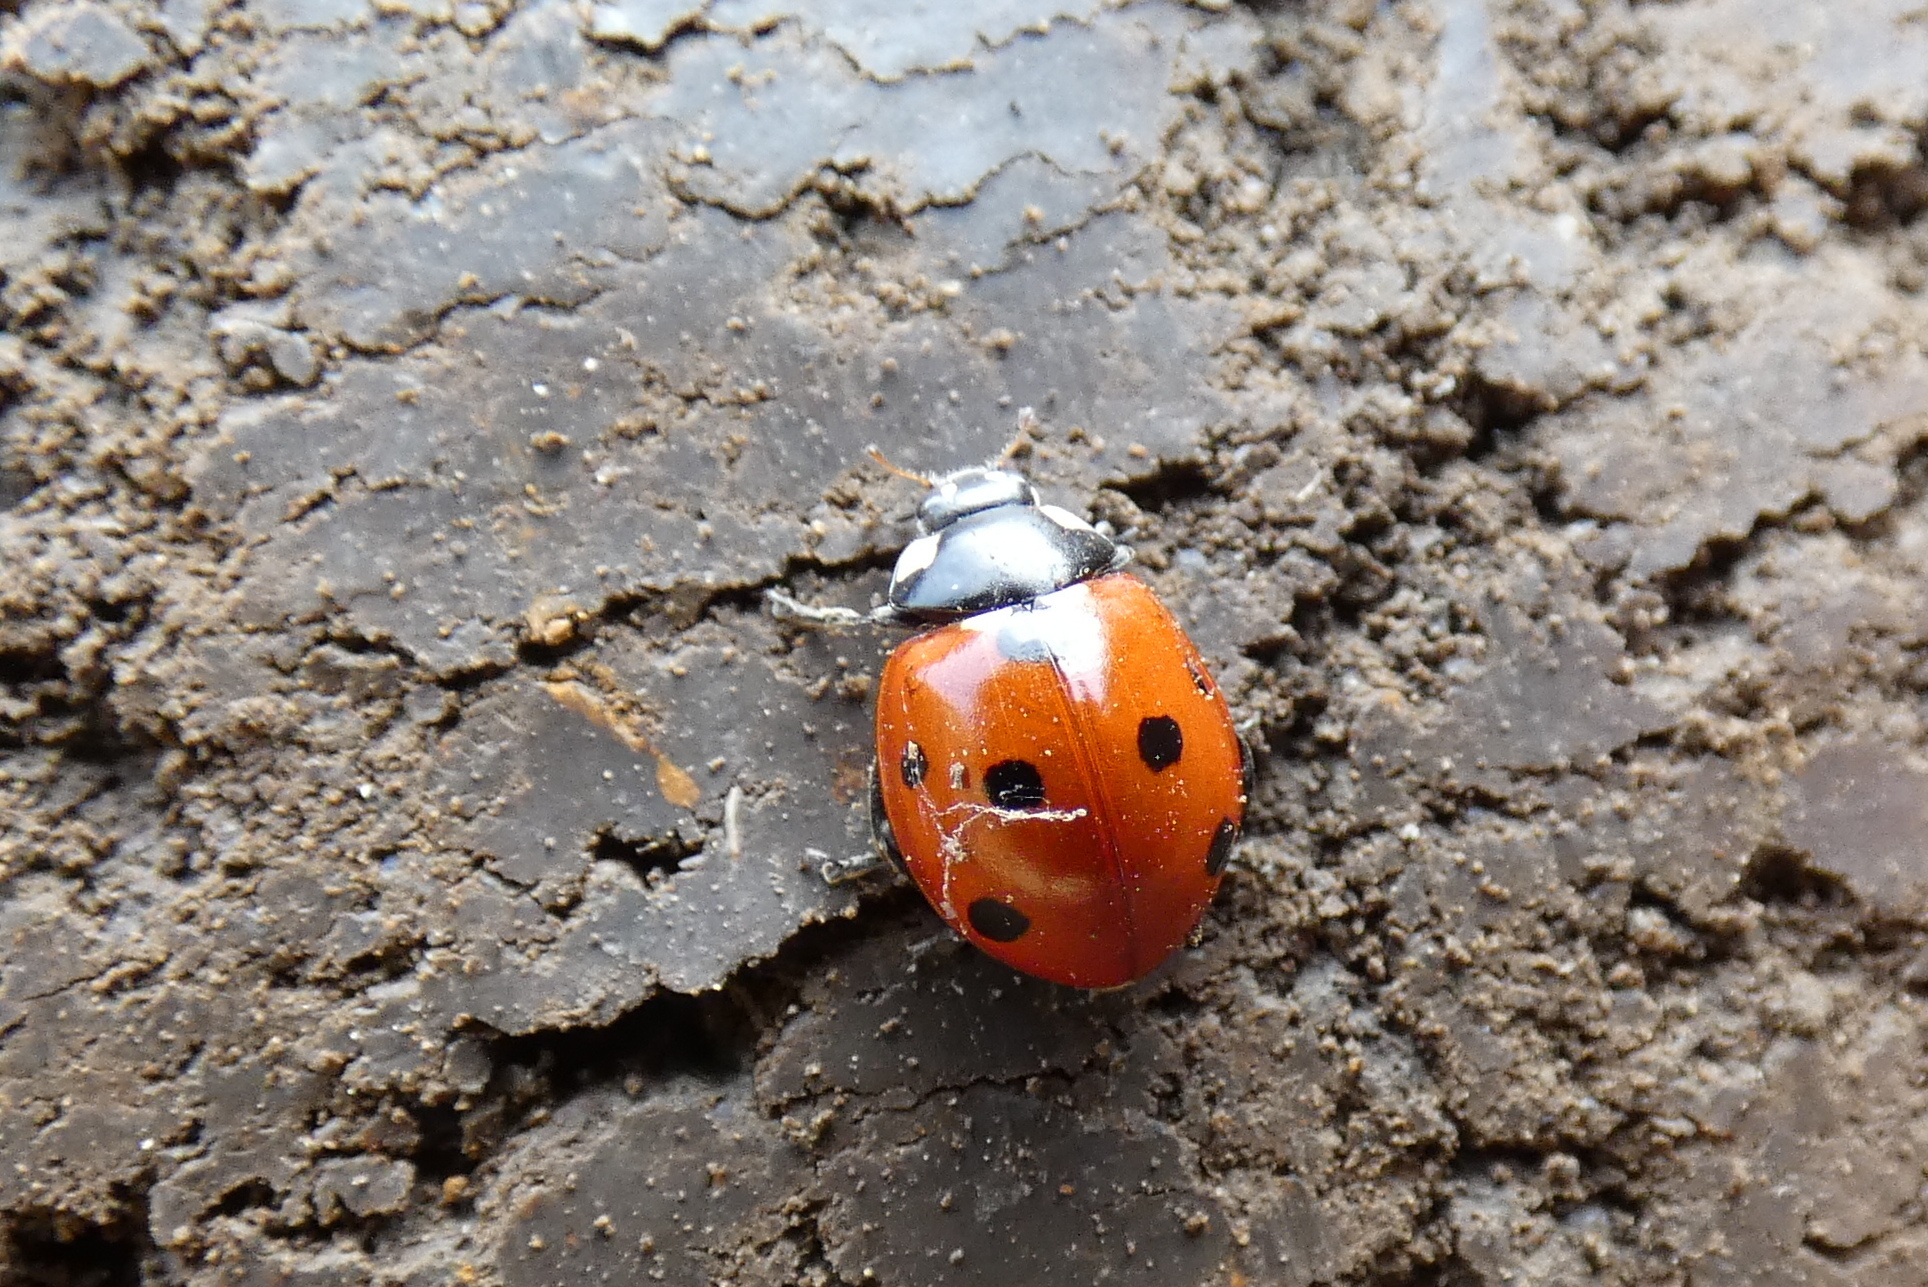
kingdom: Animalia
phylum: Arthropoda
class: Insecta
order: Coleoptera
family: Coccinellidae
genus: Coccinella
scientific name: Coccinella septempunctata
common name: Sevenspotted lady beetle
